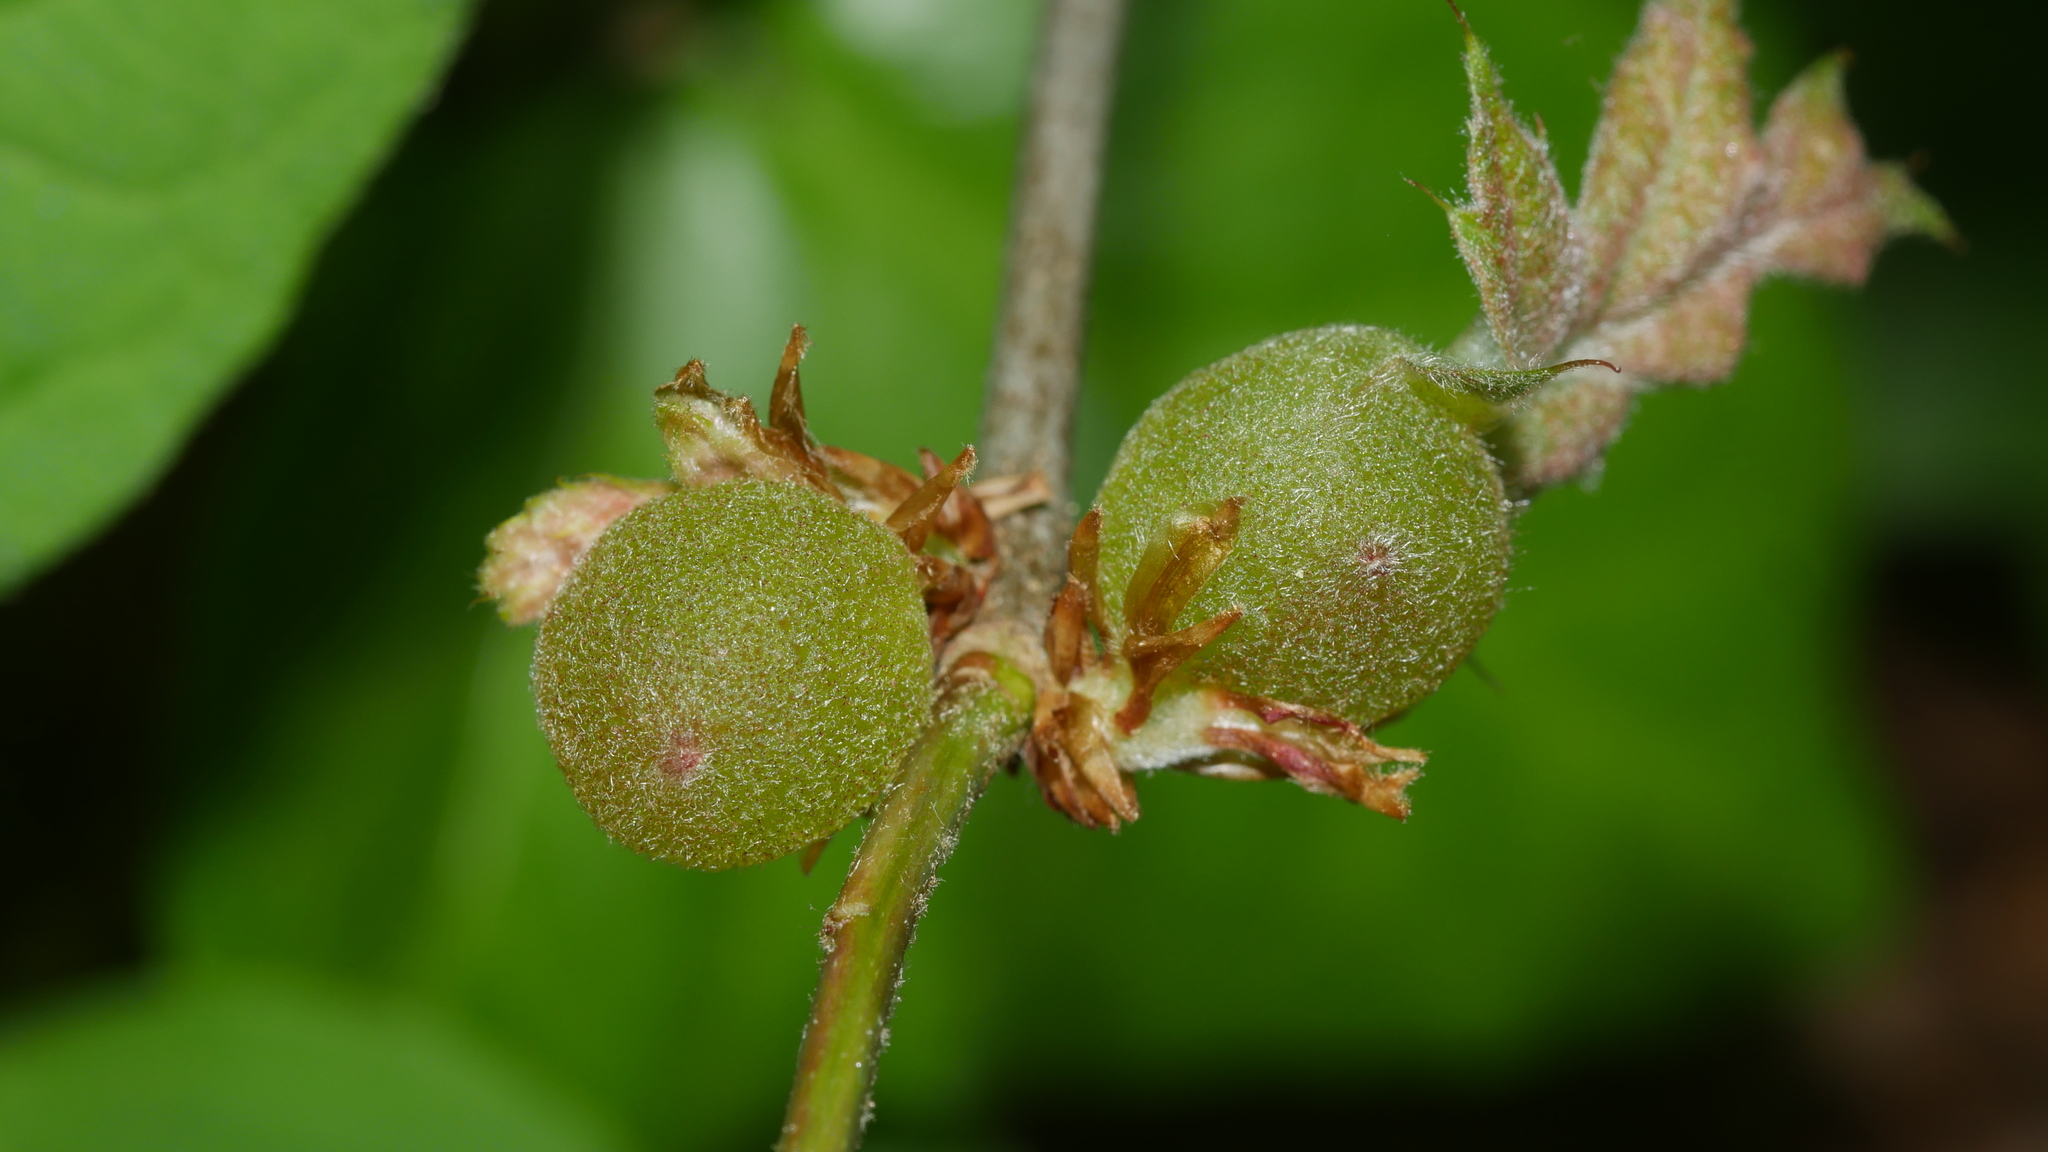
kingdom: Animalia
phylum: Arthropoda
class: Insecta
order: Hymenoptera
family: Cynipidae
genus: Dryocosmus
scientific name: Dryocosmus quercuspalustris
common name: Succulent oak gall wasp
